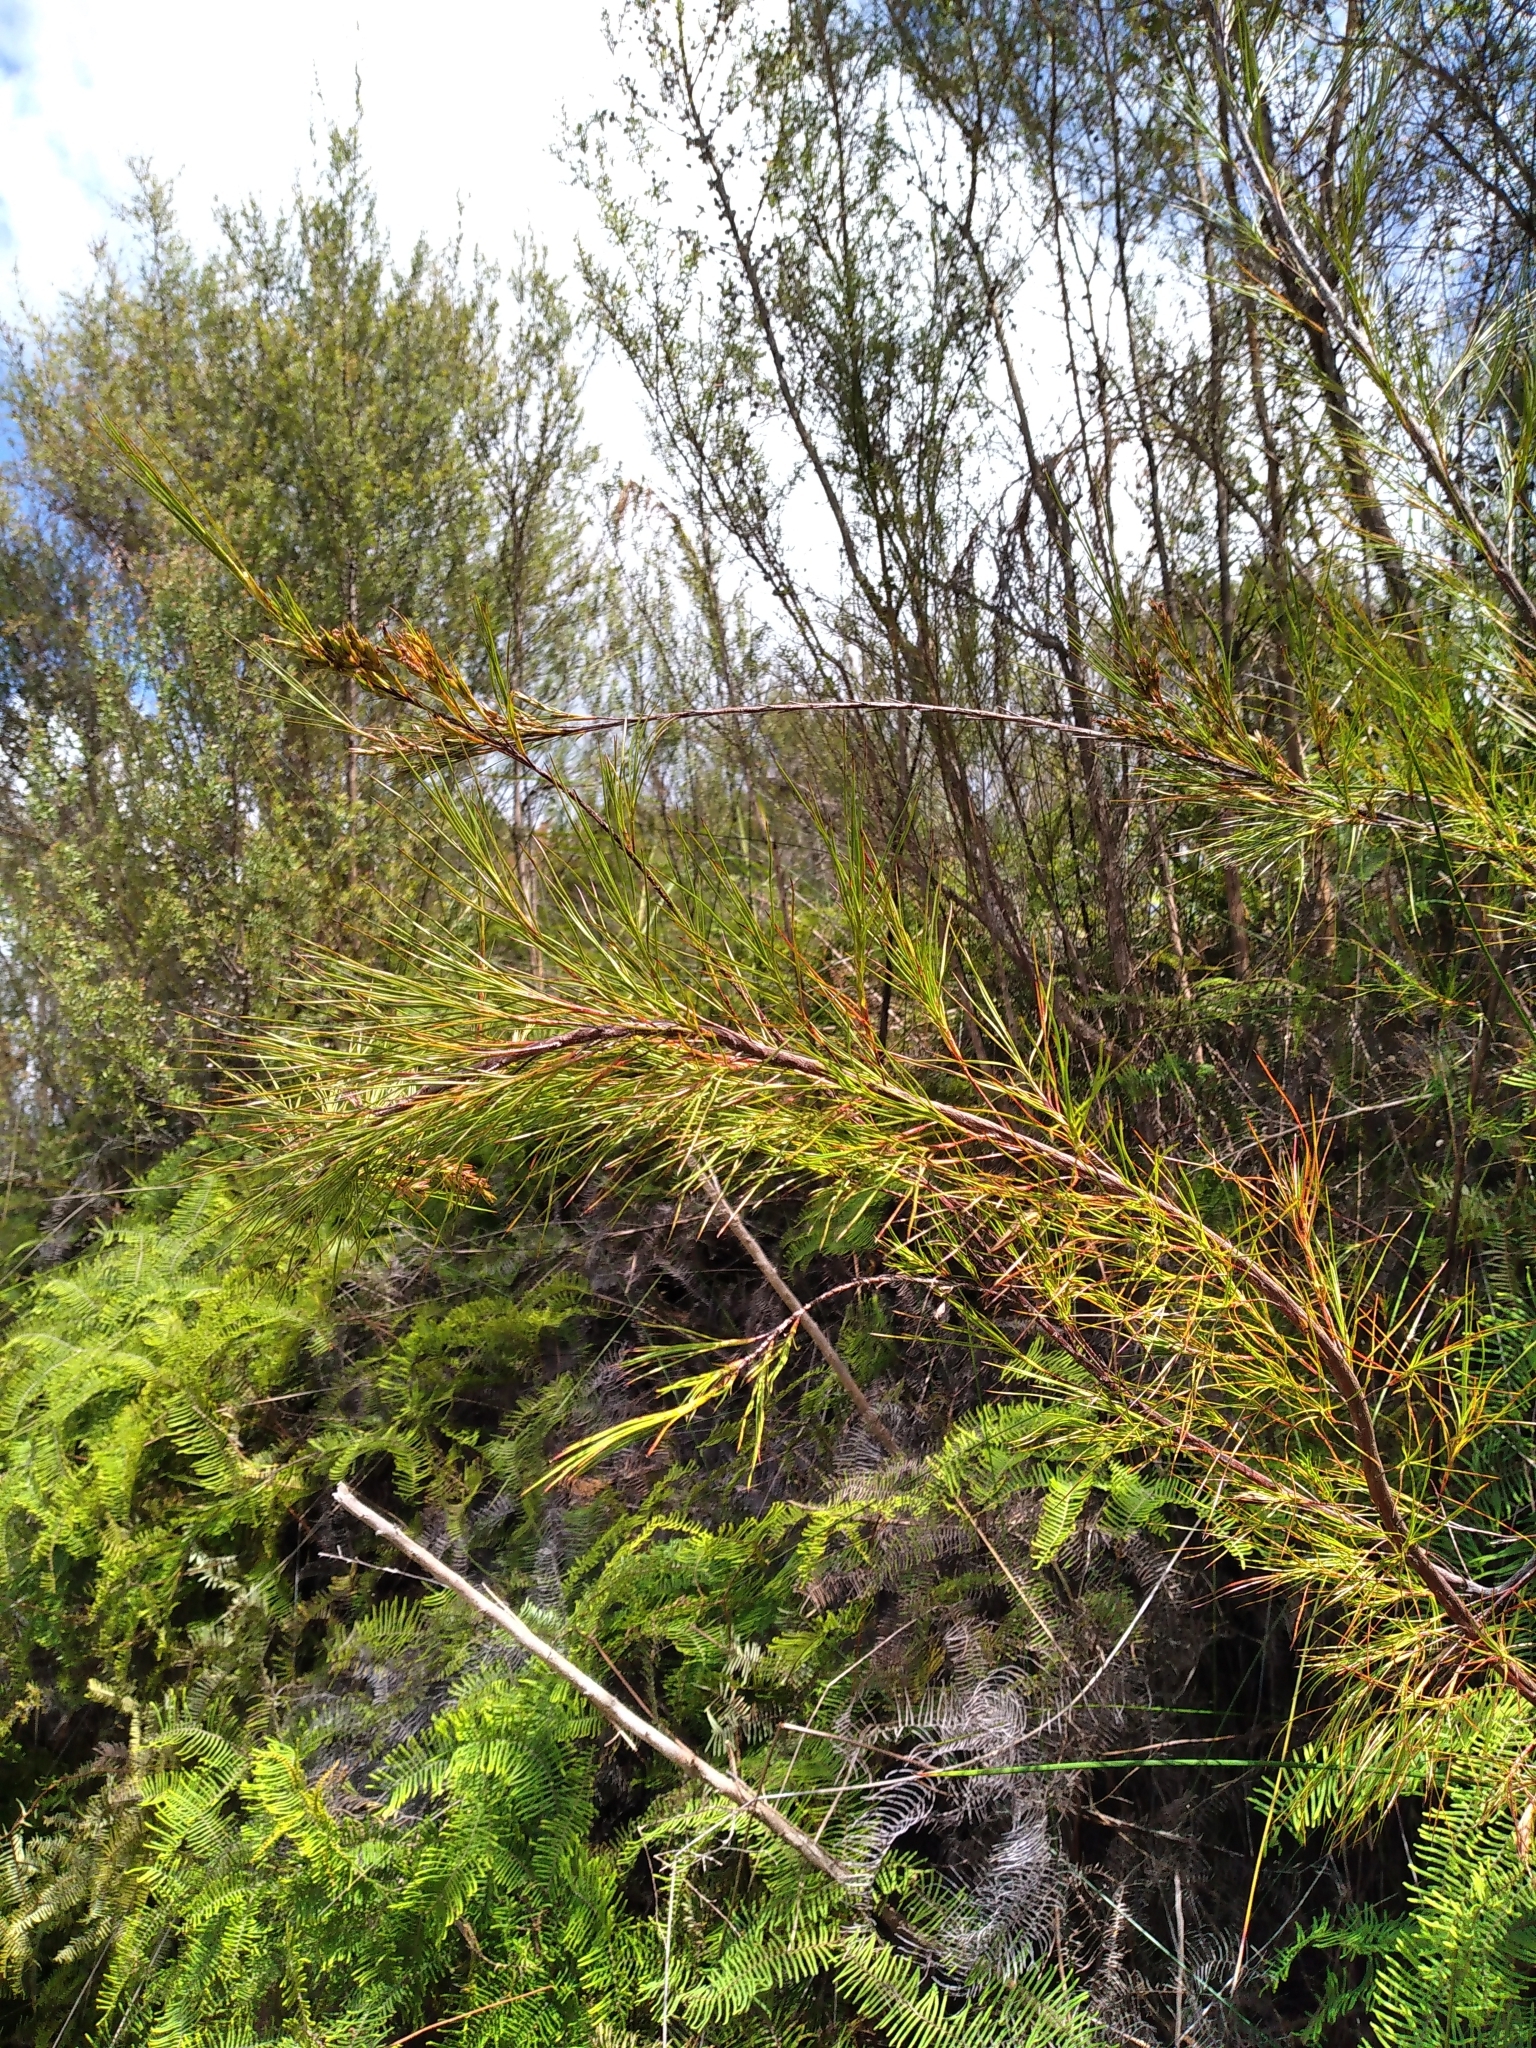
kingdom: Plantae
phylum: Tracheophyta
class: Magnoliopsida
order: Ericales
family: Ericaceae
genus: Dracophyllum
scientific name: Dracophyllum lessonianum
